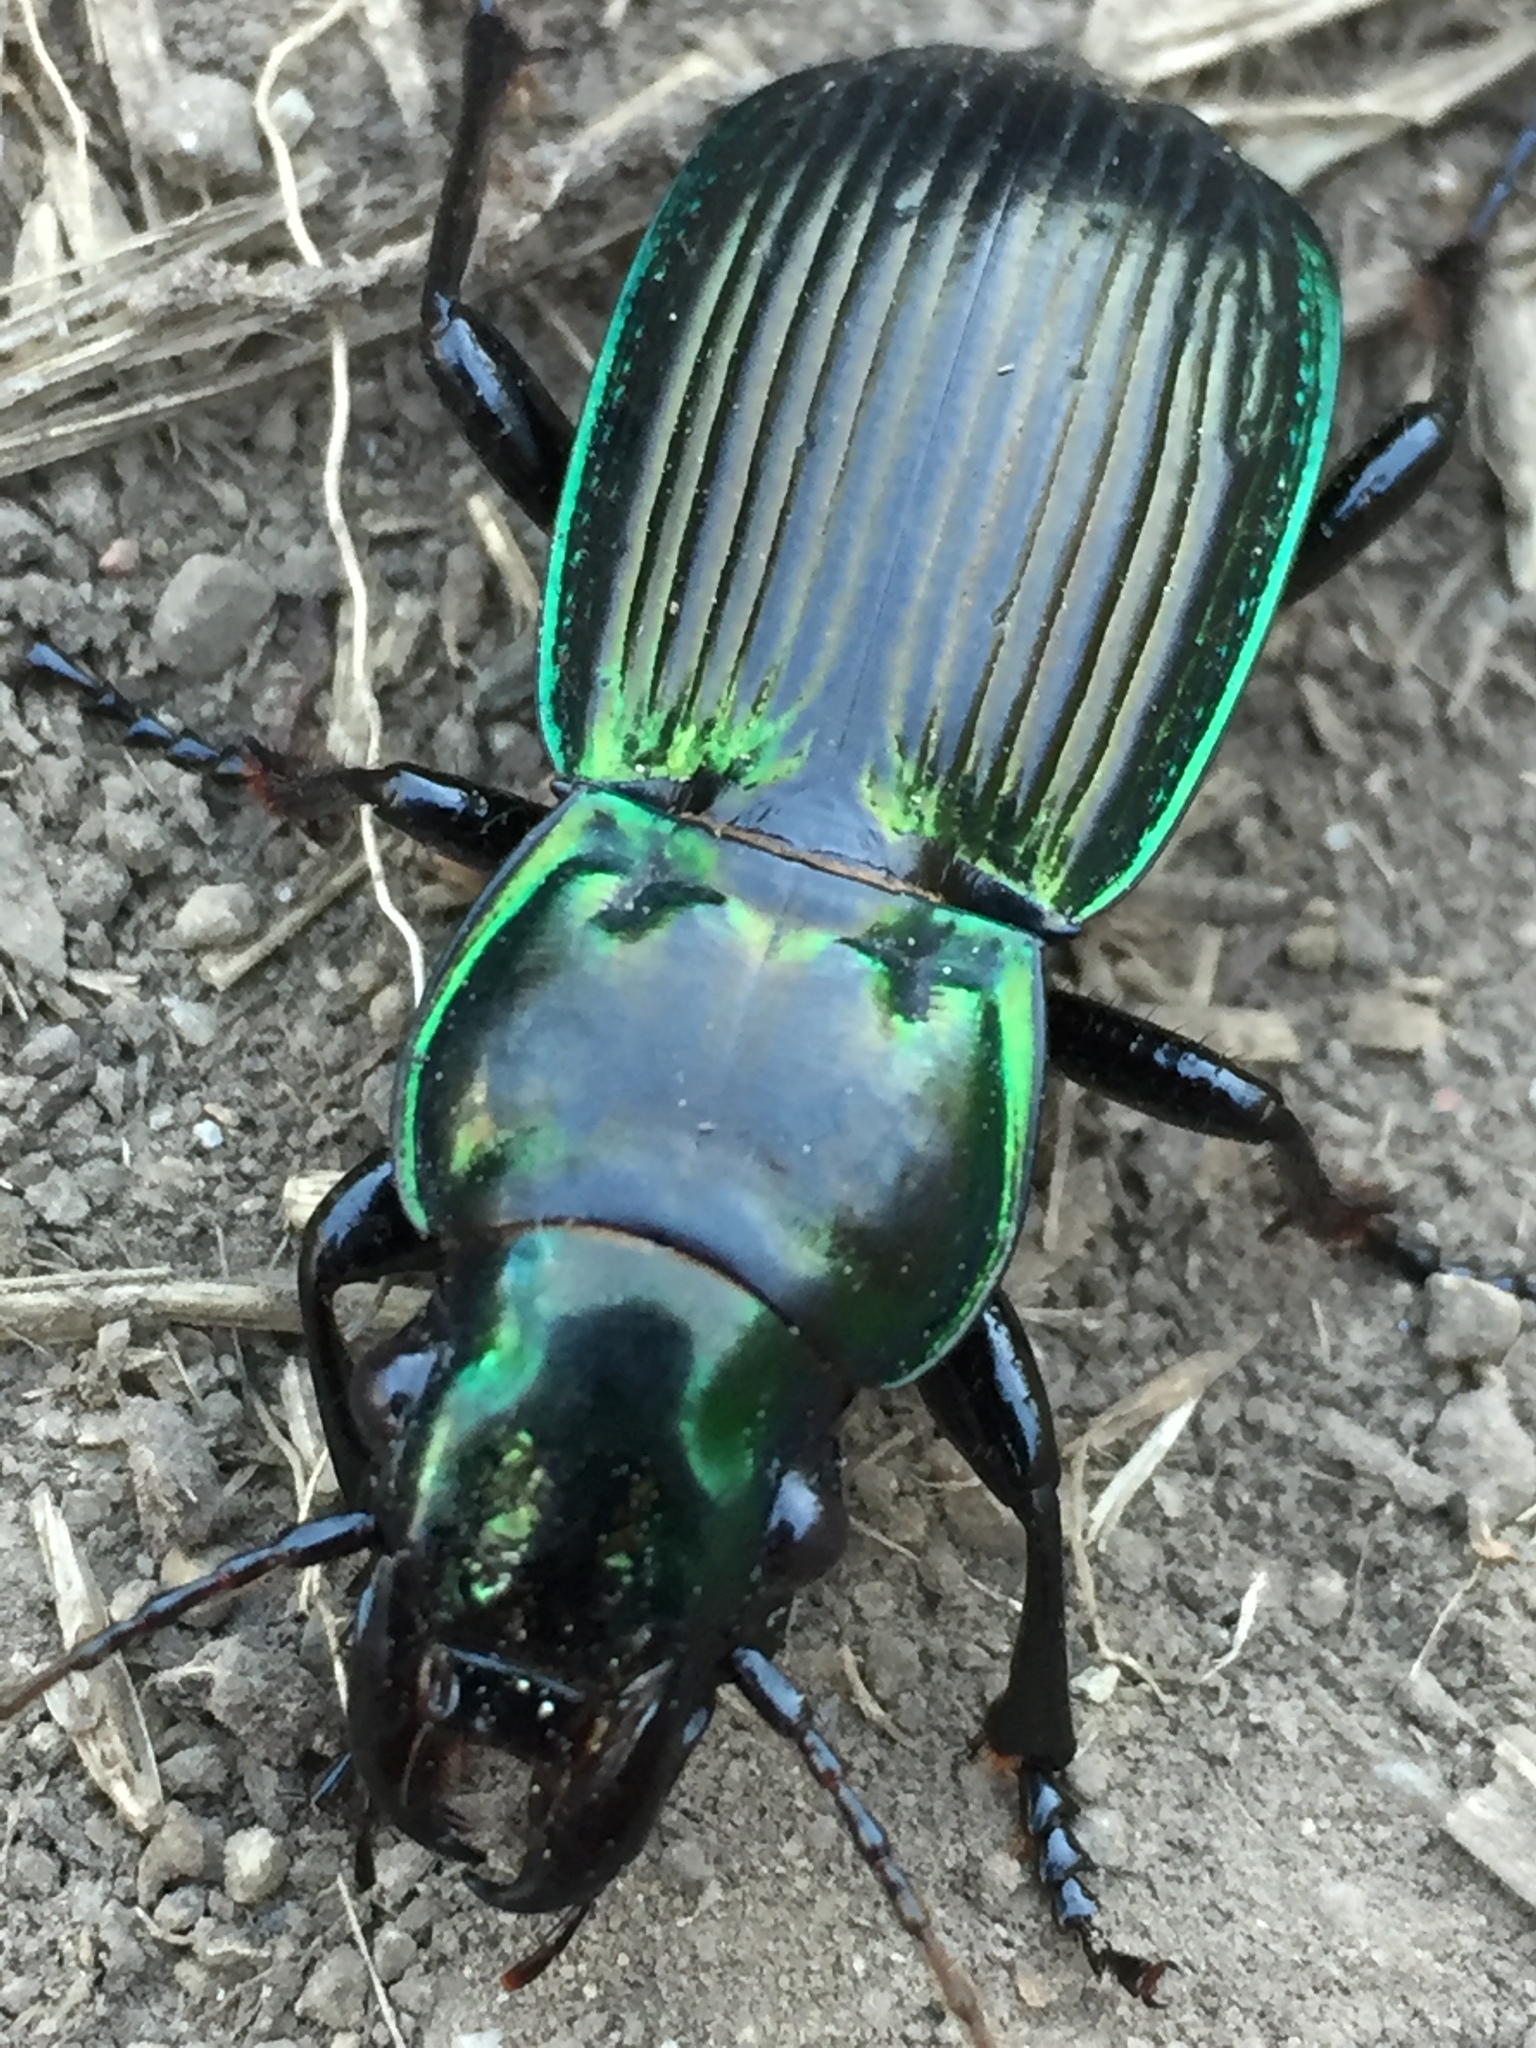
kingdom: Animalia
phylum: Arthropoda
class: Insecta
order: Coleoptera
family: Carabidae
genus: Megadromus
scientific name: Megadromus antarcticus
